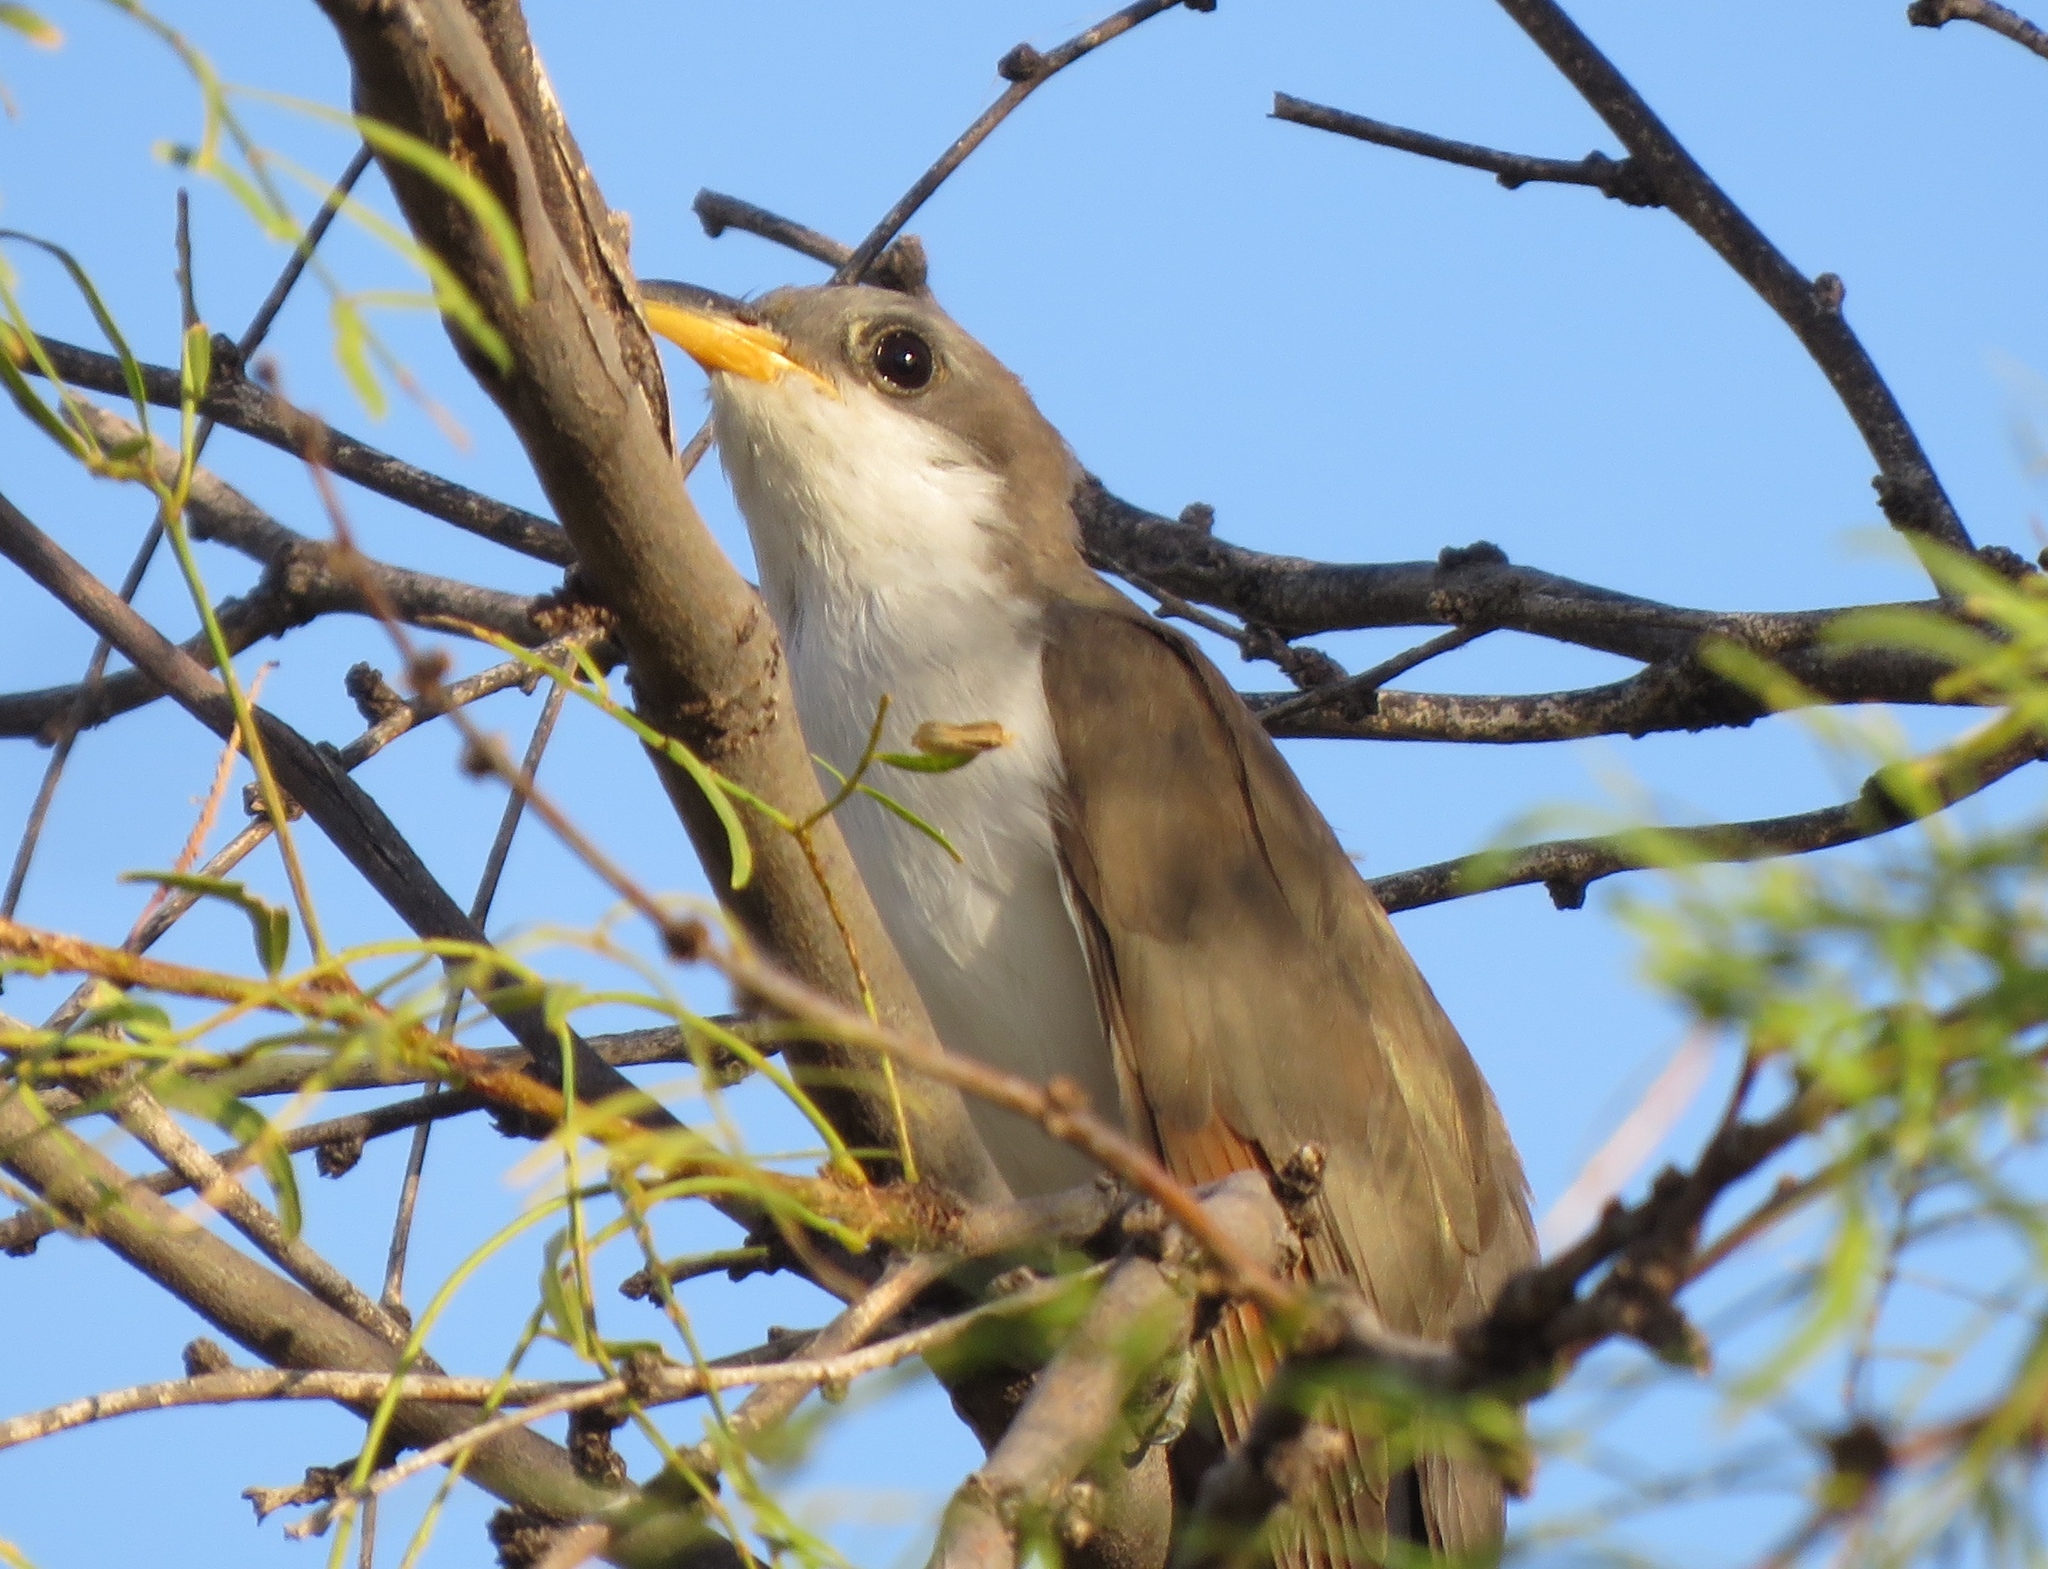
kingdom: Animalia
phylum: Chordata
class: Aves
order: Cuculiformes
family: Cuculidae
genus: Coccyzus
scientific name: Coccyzus americanus
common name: Yellow-billed cuckoo
